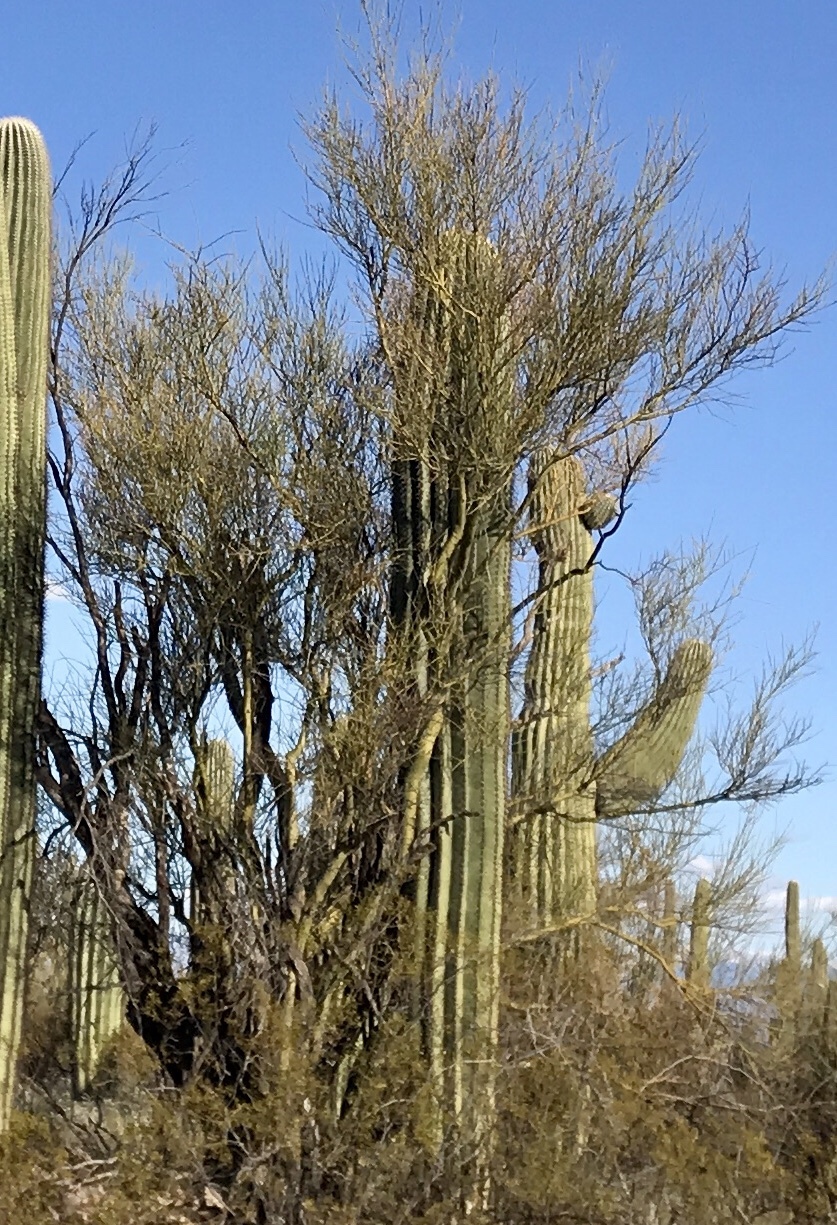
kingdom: Plantae
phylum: Tracheophyta
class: Magnoliopsida
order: Fabales
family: Fabaceae
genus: Parkinsonia
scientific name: Parkinsonia microphylla
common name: Yellow paloverde
